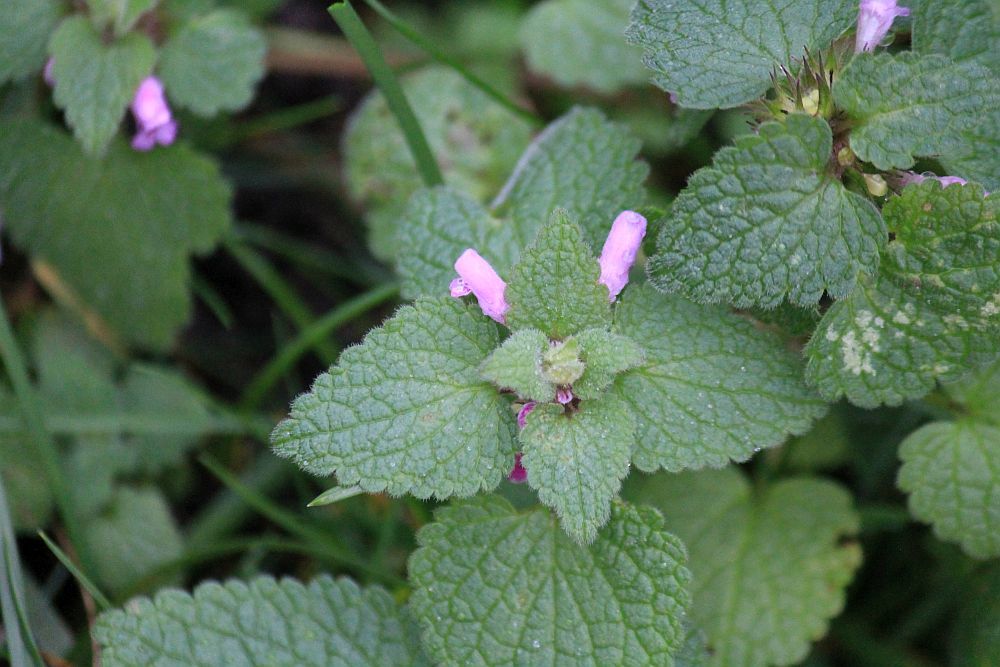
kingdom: Plantae
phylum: Tracheophyta
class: Magnoliopsida
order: Lamiales
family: Lamiaceae
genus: Lamium
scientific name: Lamium purpureum
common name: Red dead-nettle
